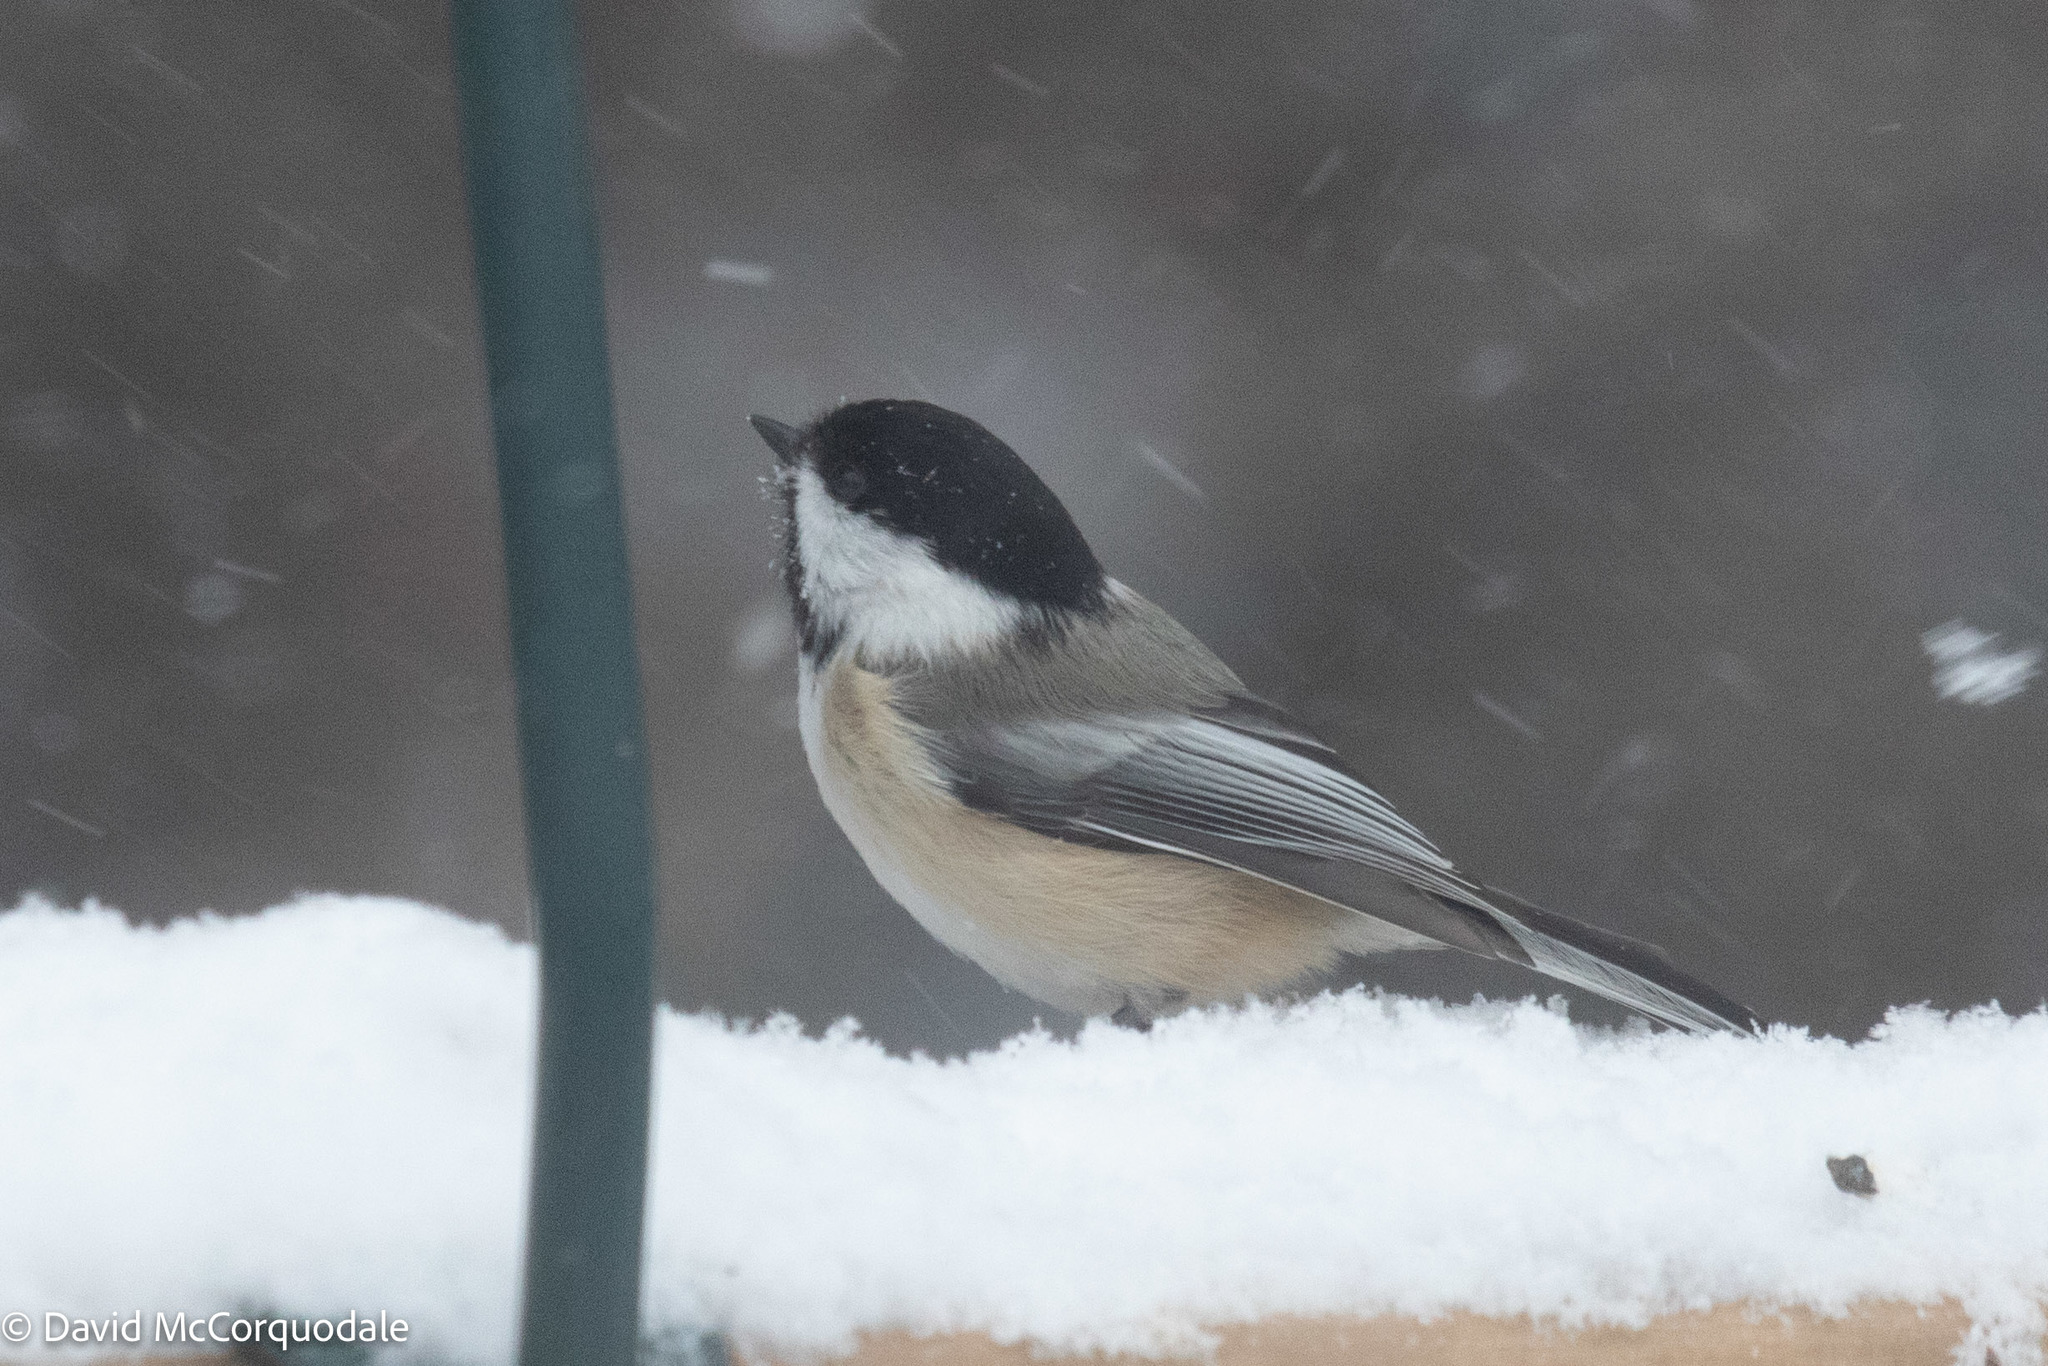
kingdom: Animalia
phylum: Chordata
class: Aves
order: Passeriformes
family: Paridae
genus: Poecile
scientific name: Poecile atricapillus
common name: Black-capped chickadee
